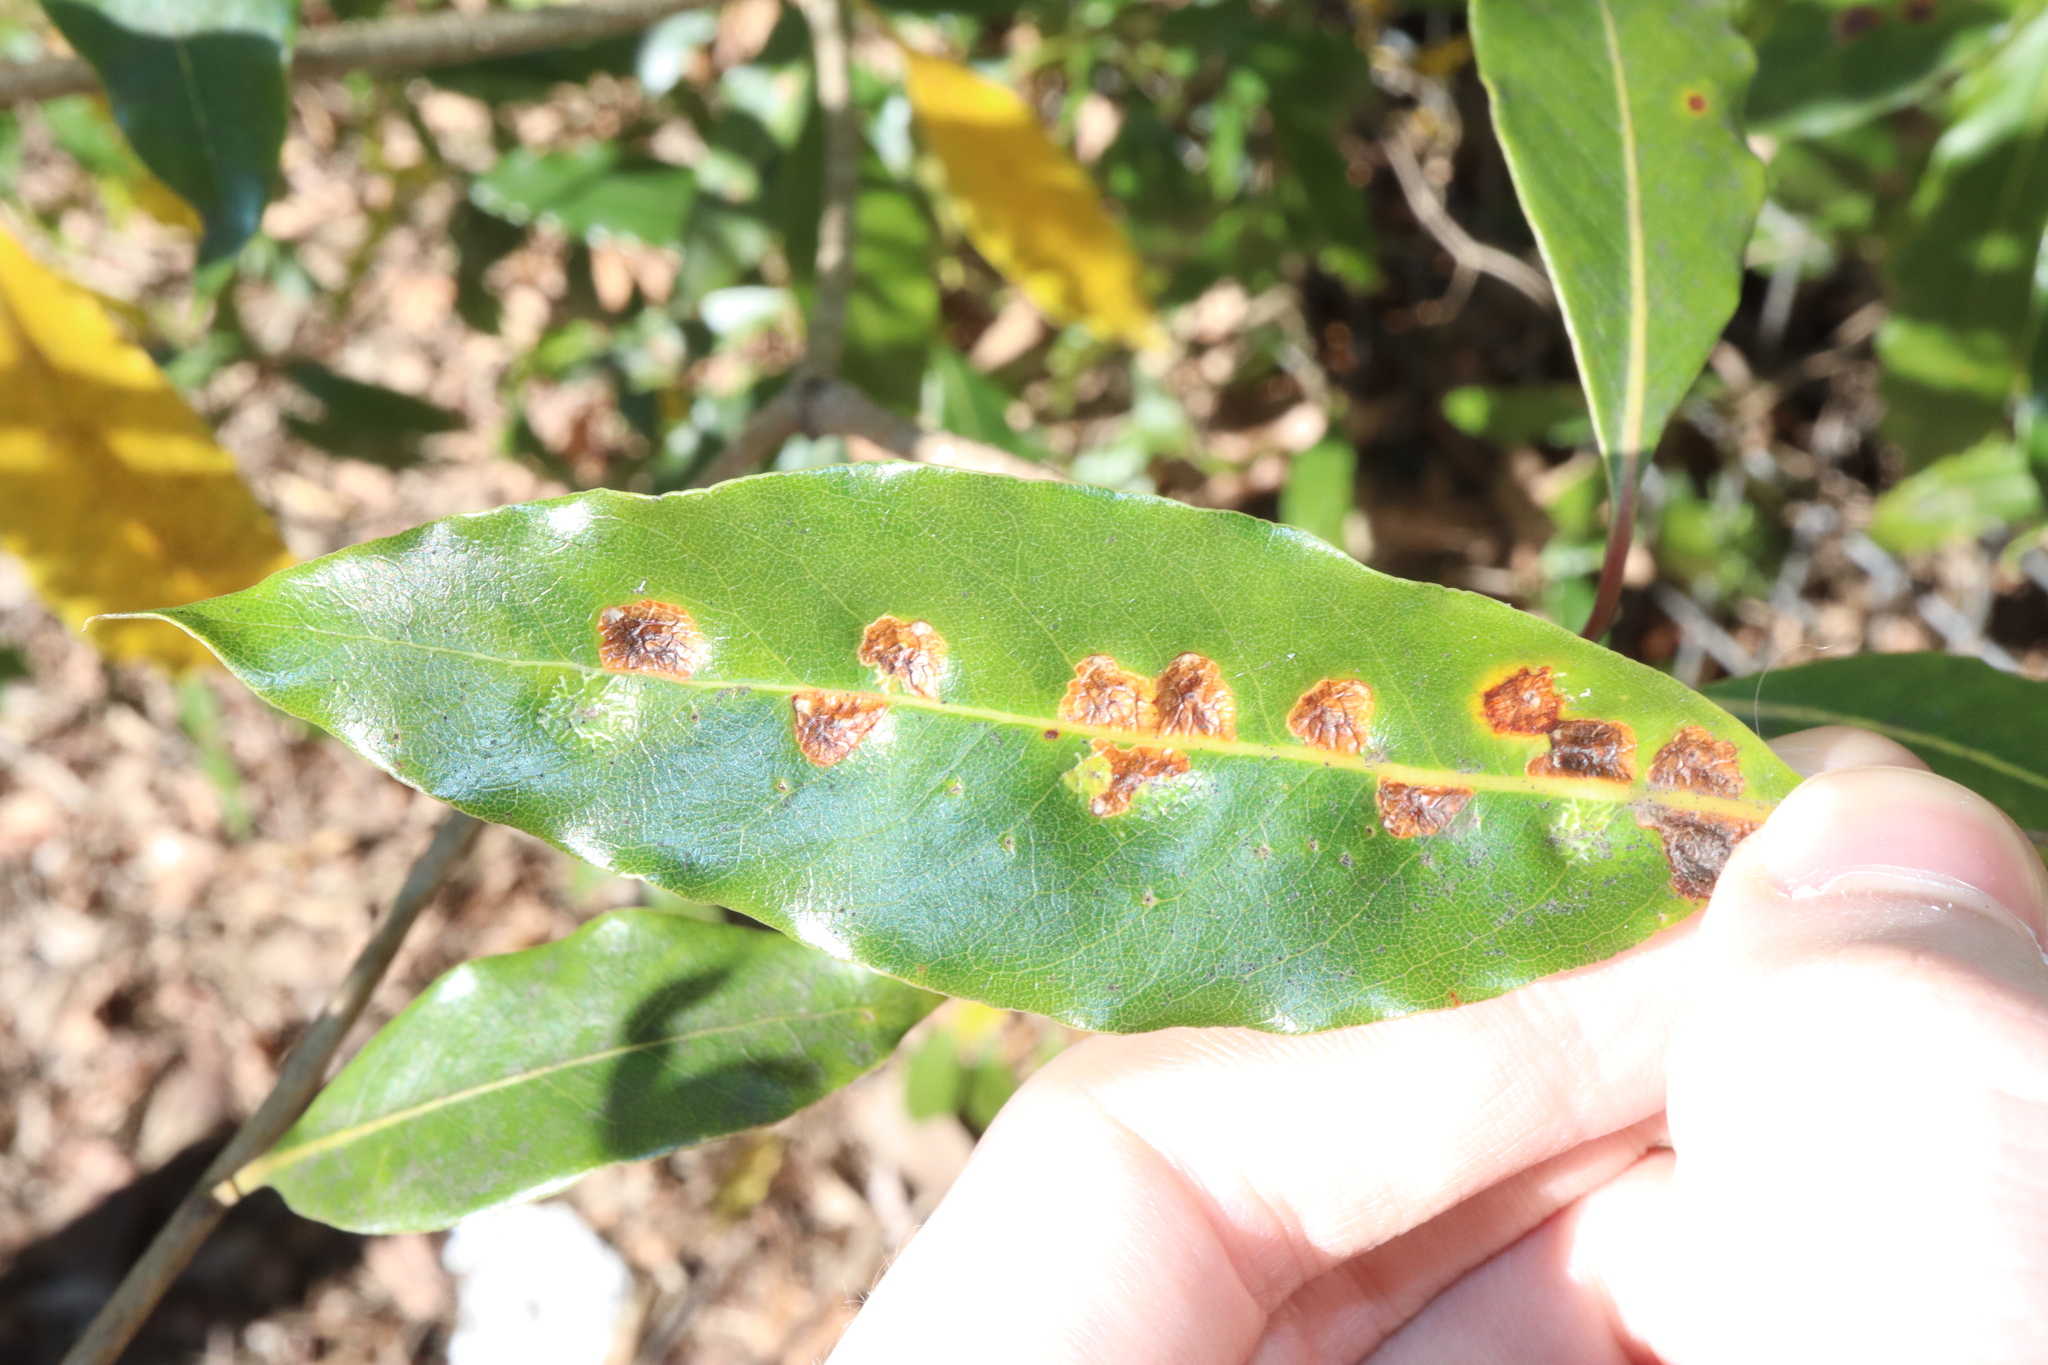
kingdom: Animalia
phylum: Arthropoda
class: Insecta
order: Diptera
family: Agromyzidae
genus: Phytoliriomyza
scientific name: Phytoliriomyza pittosporophylli
